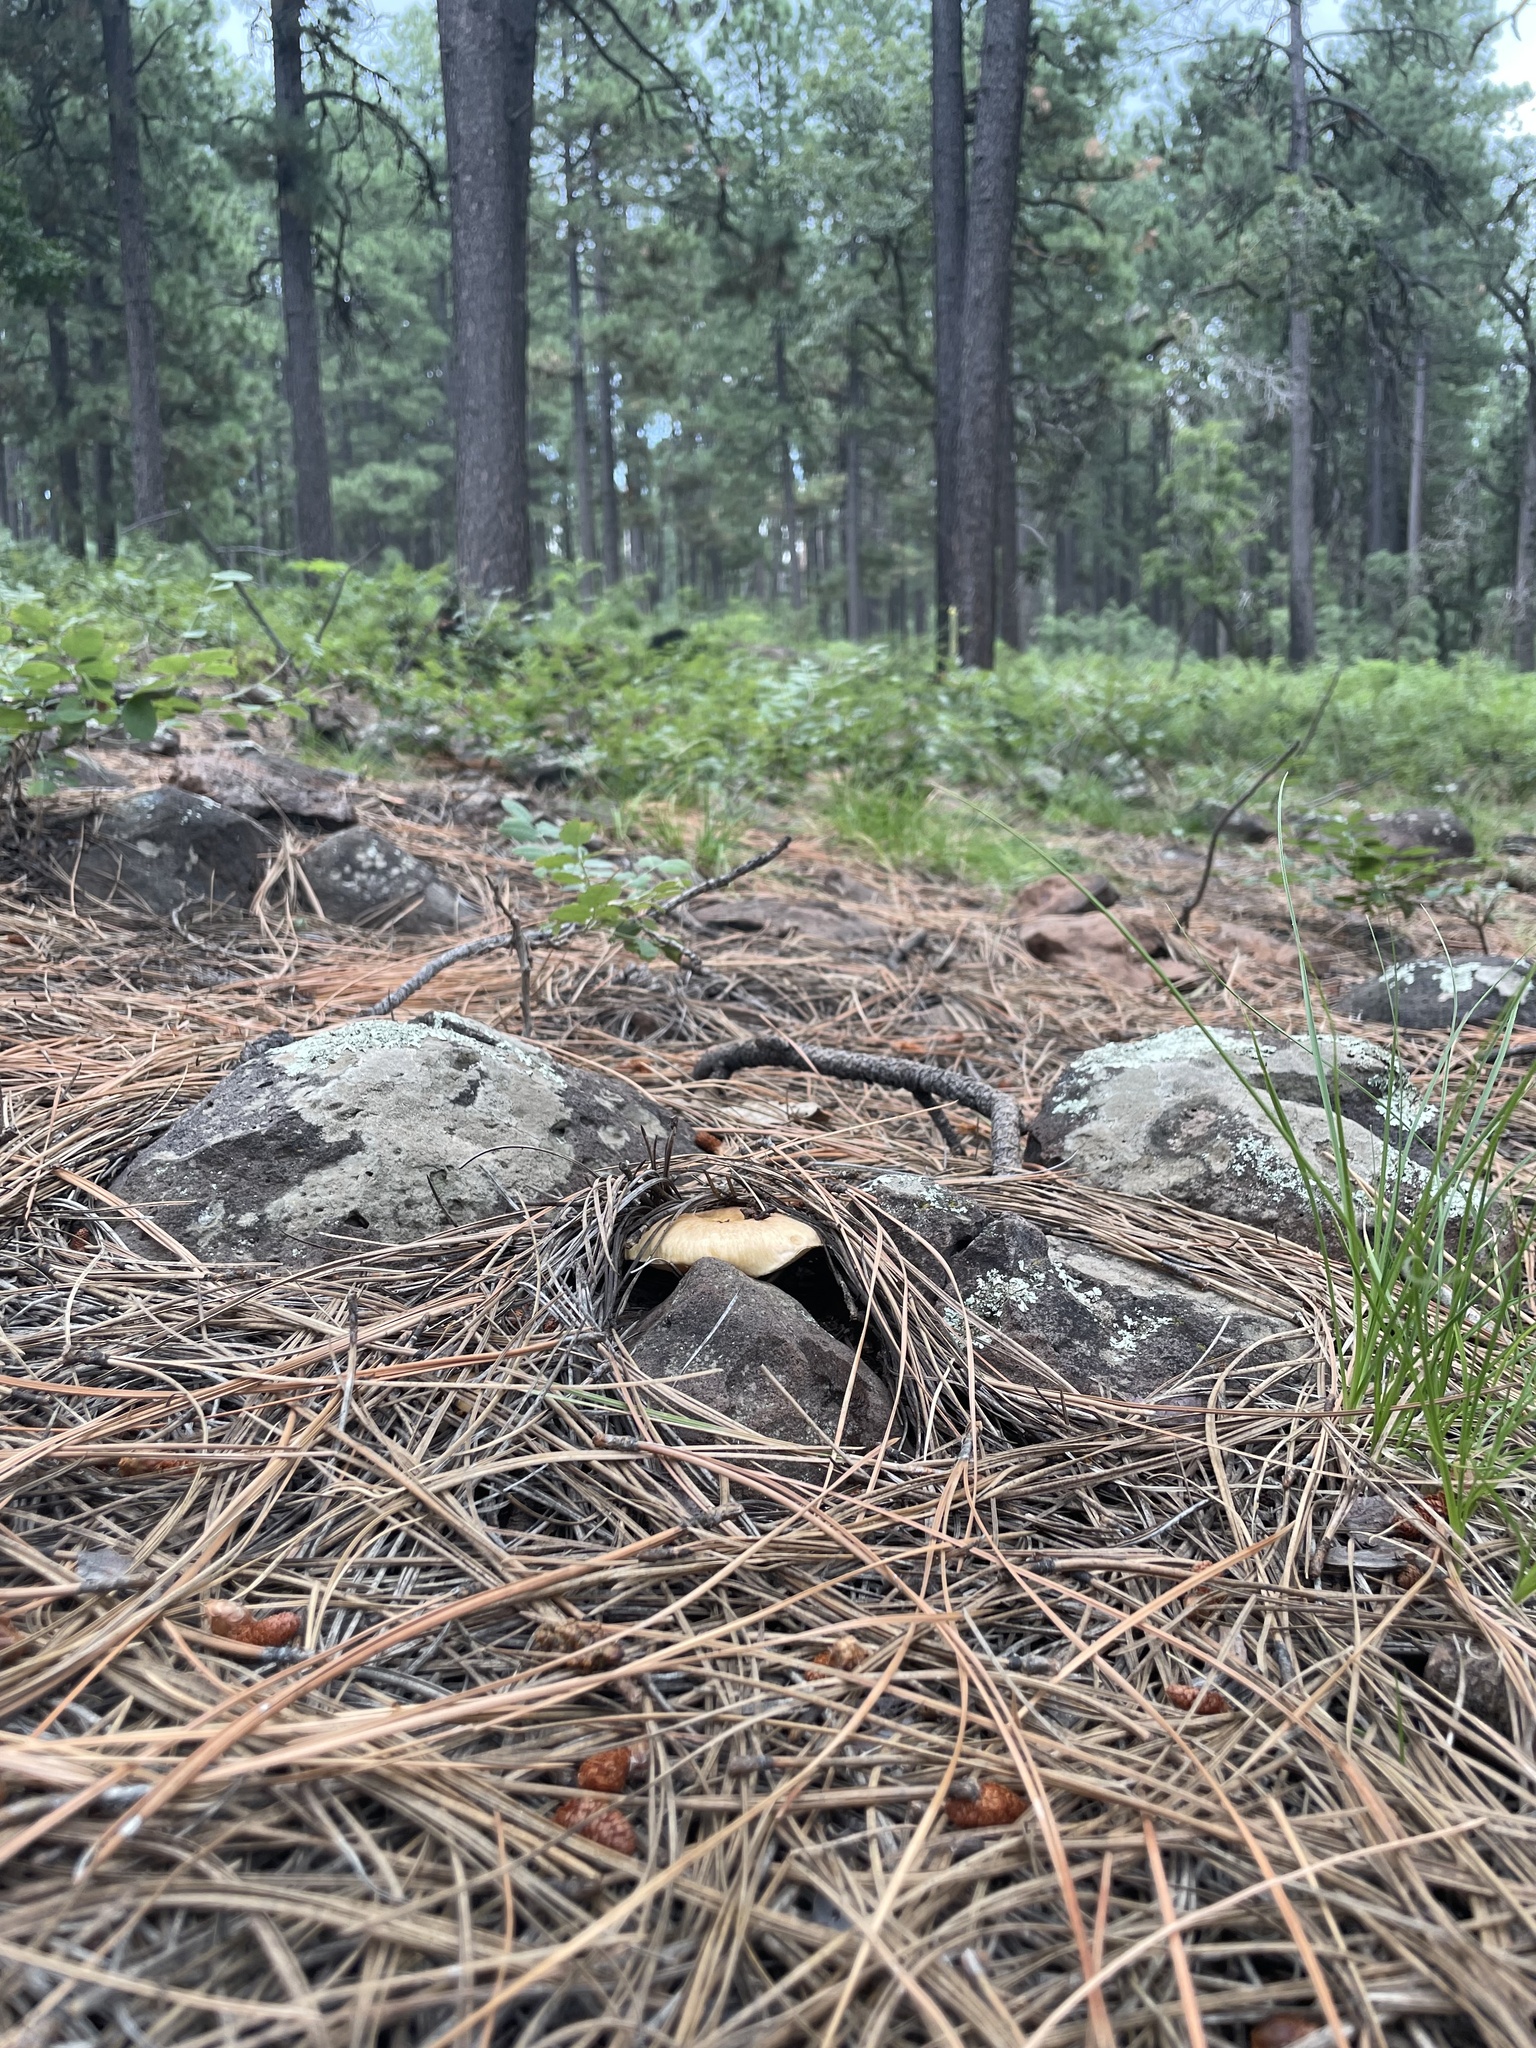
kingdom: Fungi
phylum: Basidiomycota
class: Agaricomycetes
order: Boletales
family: Suillaceae
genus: Suillus
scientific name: Suillus occidentalis
